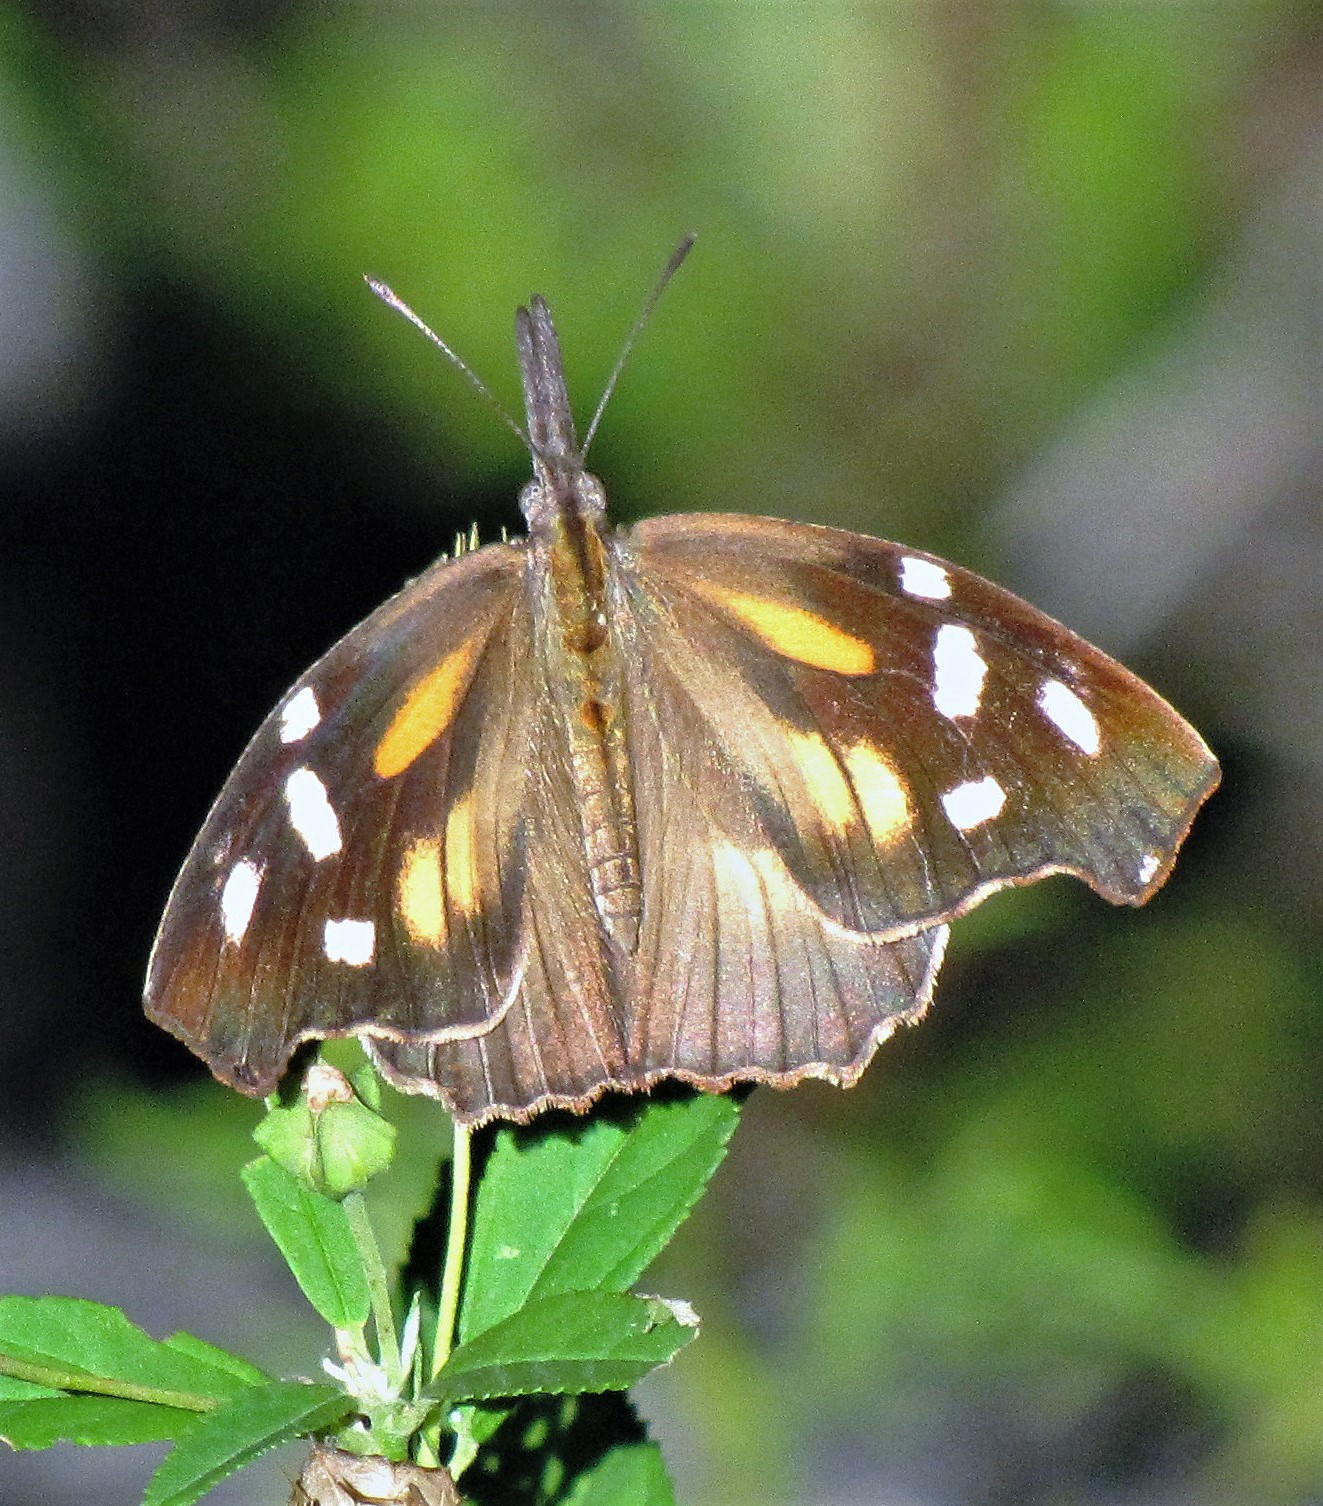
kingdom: Animalia
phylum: Arthropoda
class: Insecta
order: Lepidoptera
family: Nymphalidae
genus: Libytheana
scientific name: Libytheana carinenta
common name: American snout
